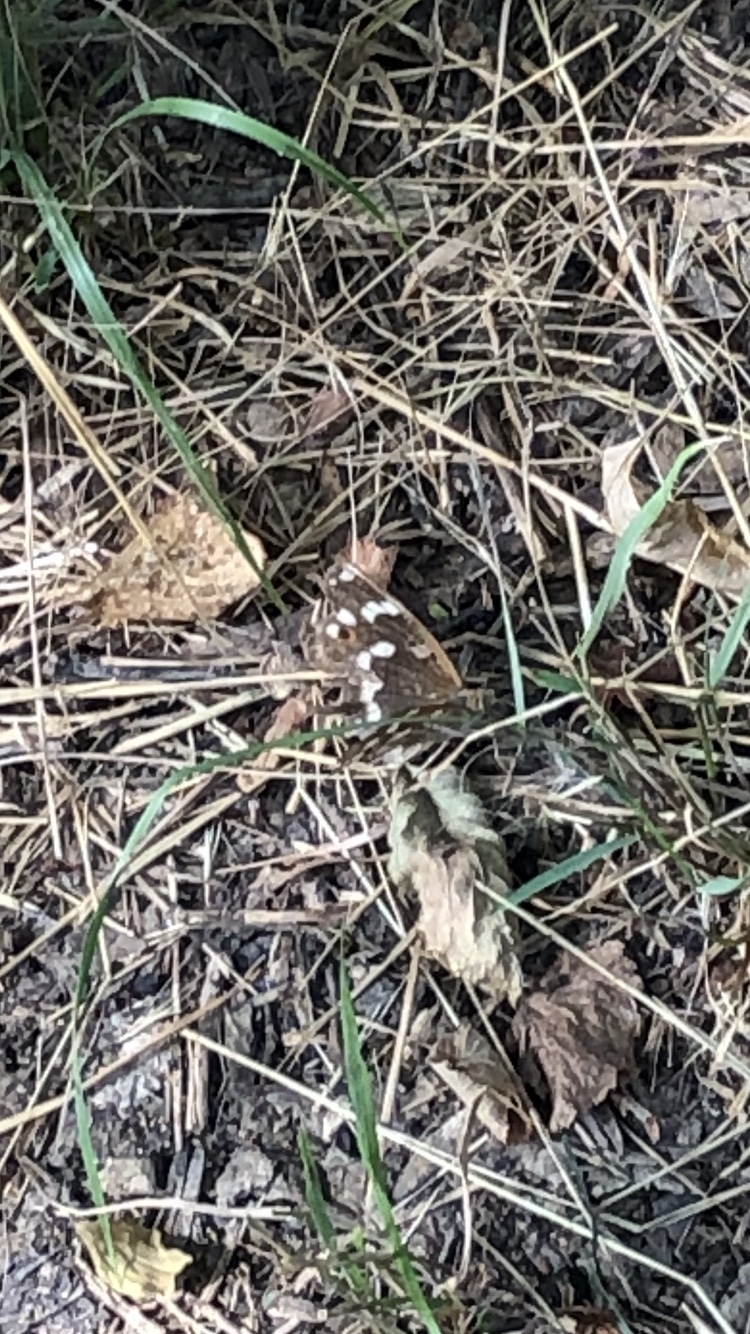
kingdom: Animalia
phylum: Arthropoda
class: Insecta
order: Lepidoptera
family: Nymphalidae
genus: Apatura
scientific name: Apatura ilia
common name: Lesser purple emperor
